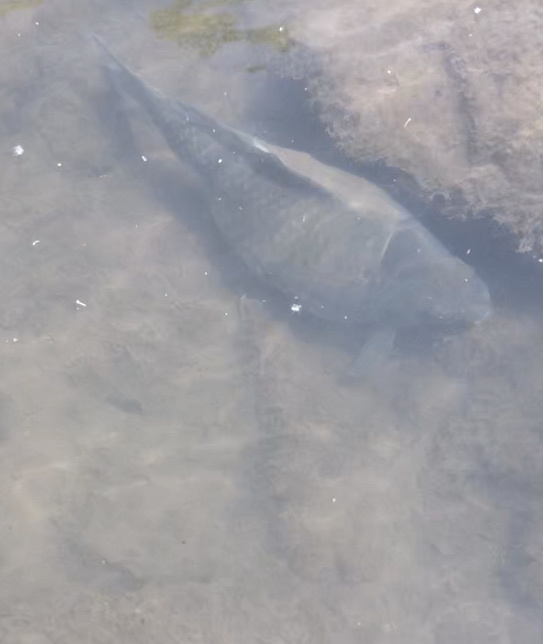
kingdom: Animalia
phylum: Chordata
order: Cypriniformes
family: Cyprinidae
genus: Cyprinus
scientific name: Cyprinus carpio
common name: Common carp
